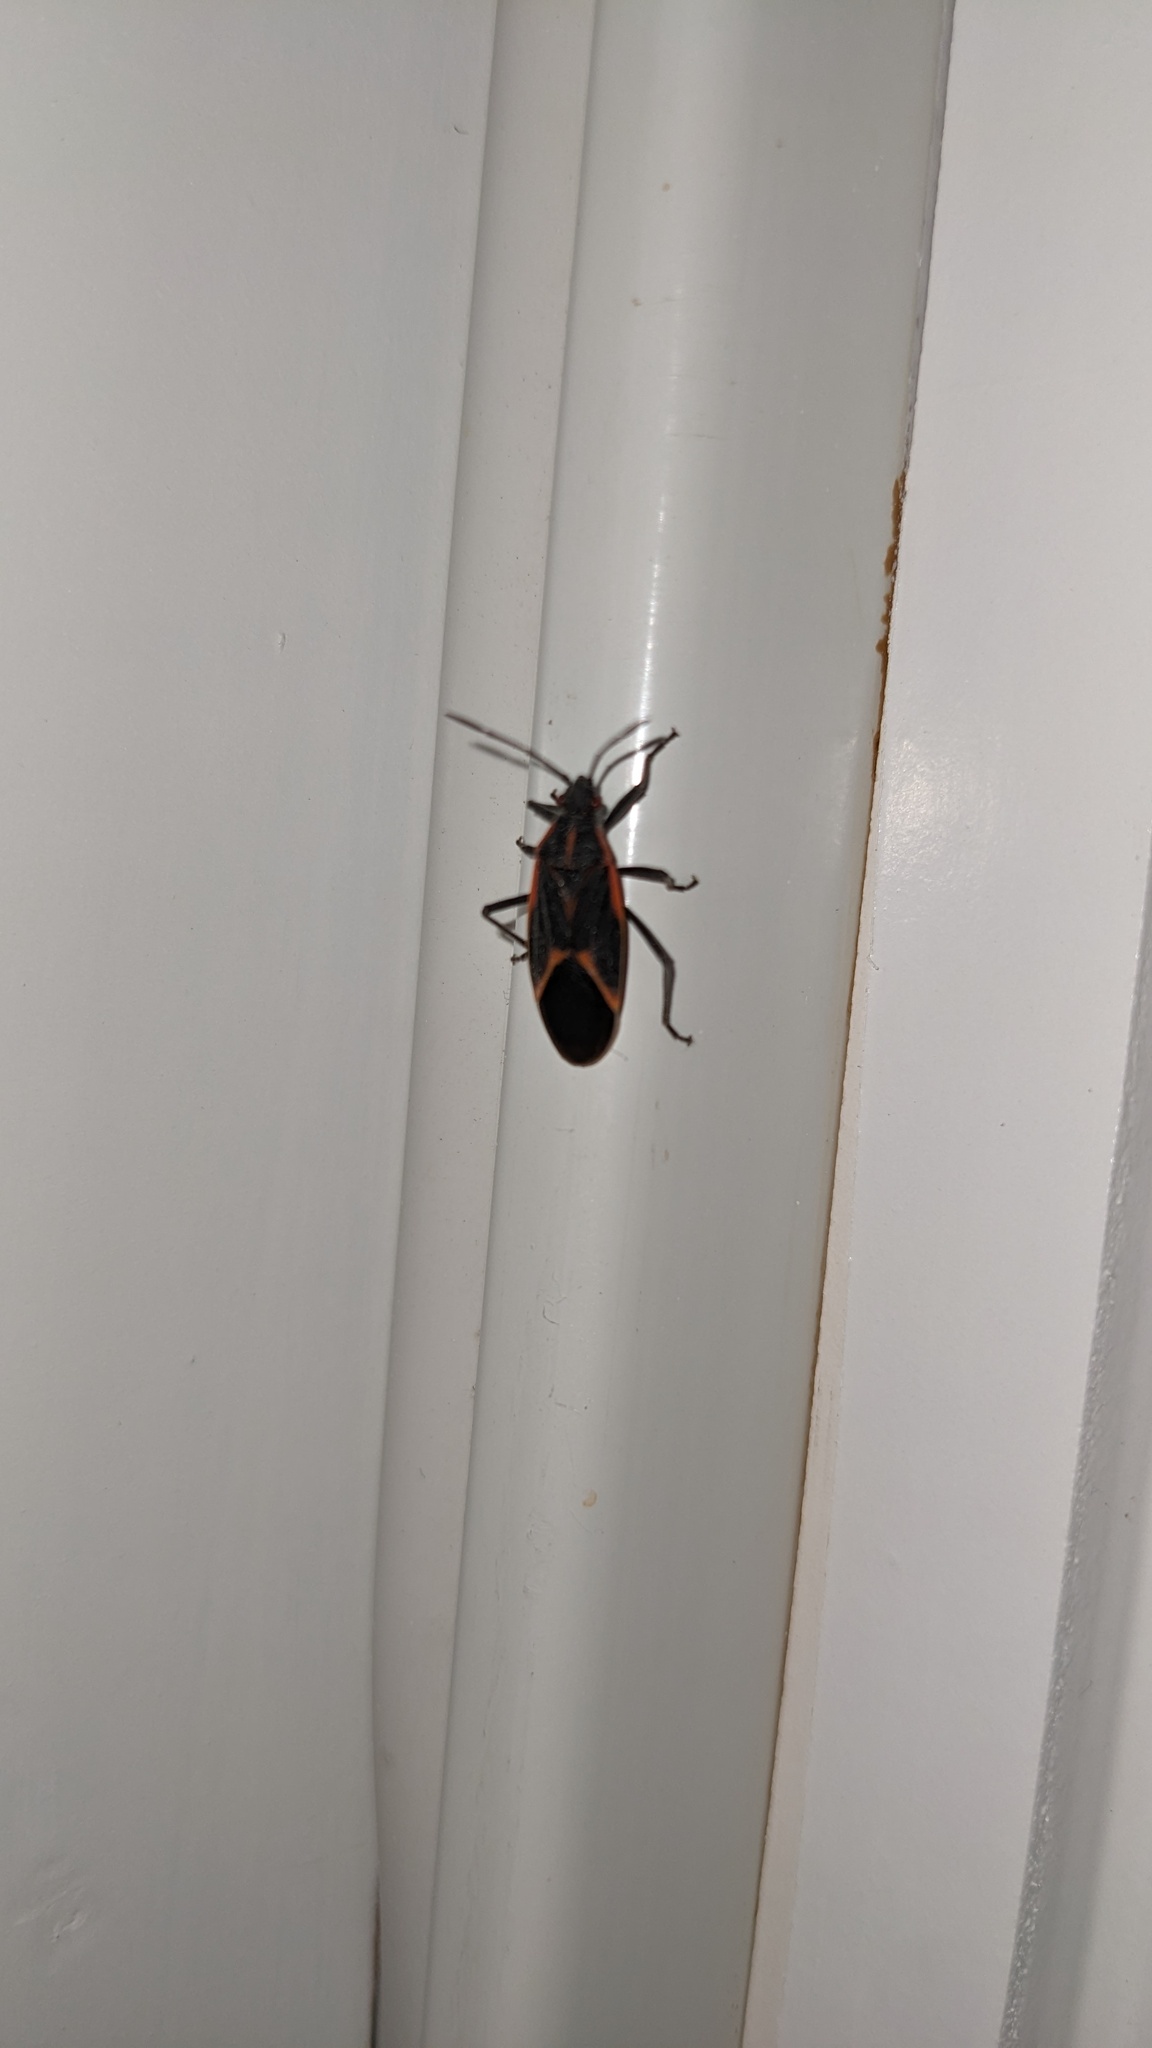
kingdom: Animalia
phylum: Arthropoda
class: Insecta
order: Hemiptera
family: Rhopalidae
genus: Boisea
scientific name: Boisea trivittata
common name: Boxelder bug
